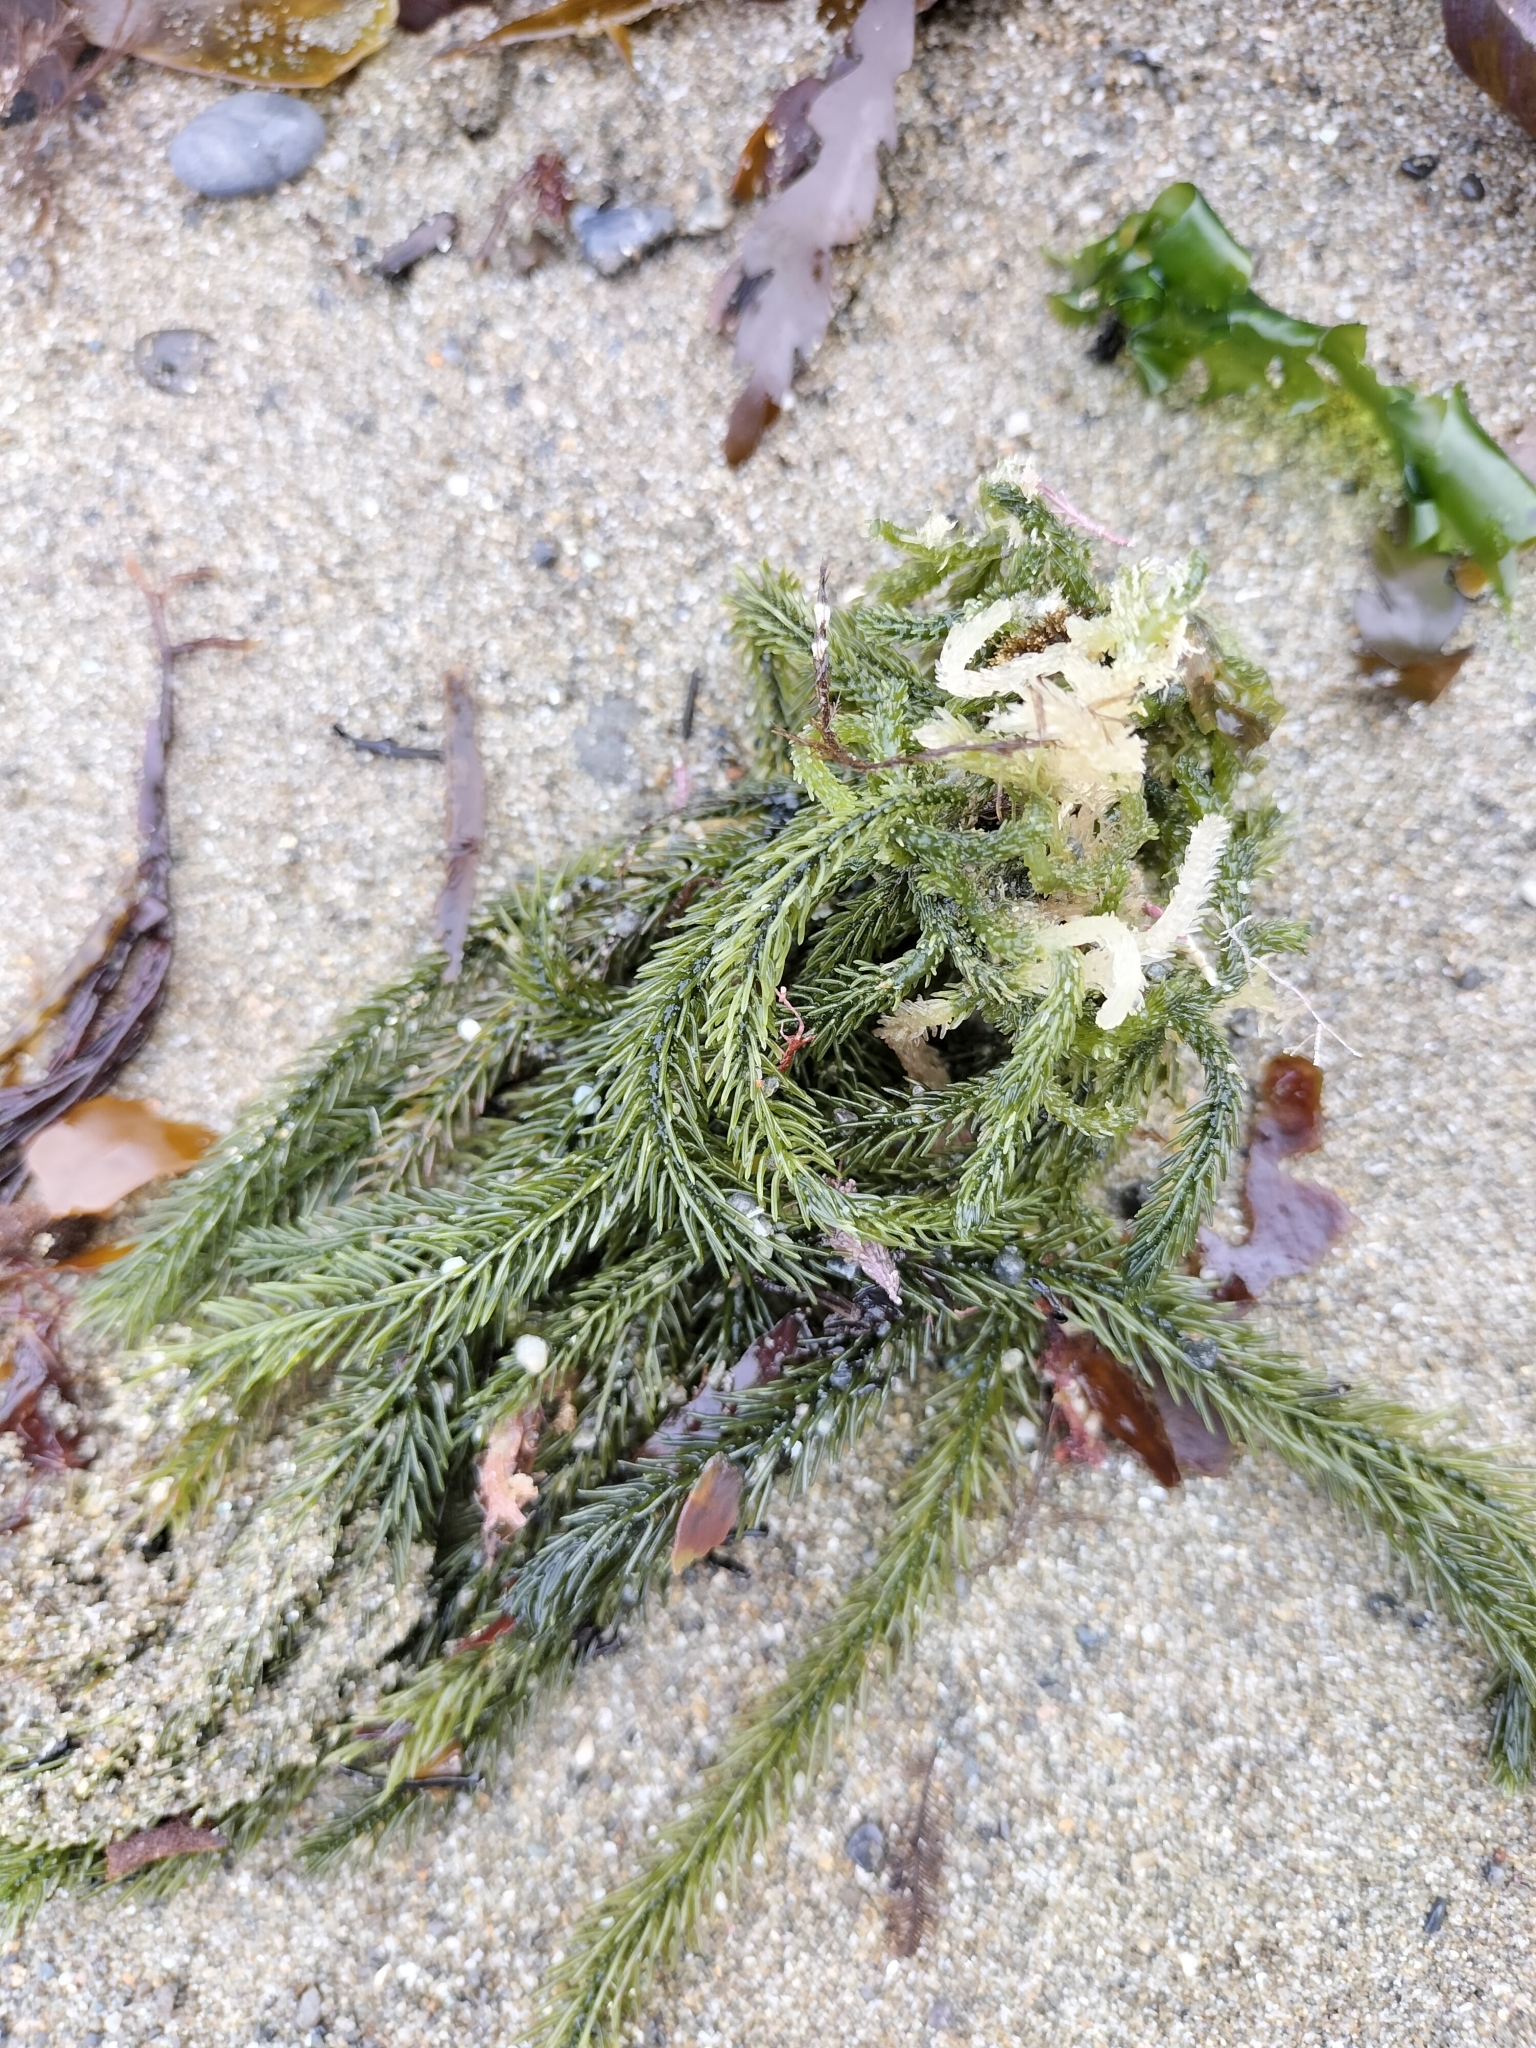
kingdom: Plantae
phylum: Chlorophyta
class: Ulvophyceae
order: Bryopsidales
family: Caulerpaceae
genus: Caulerpa
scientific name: Caulerpa brownii
